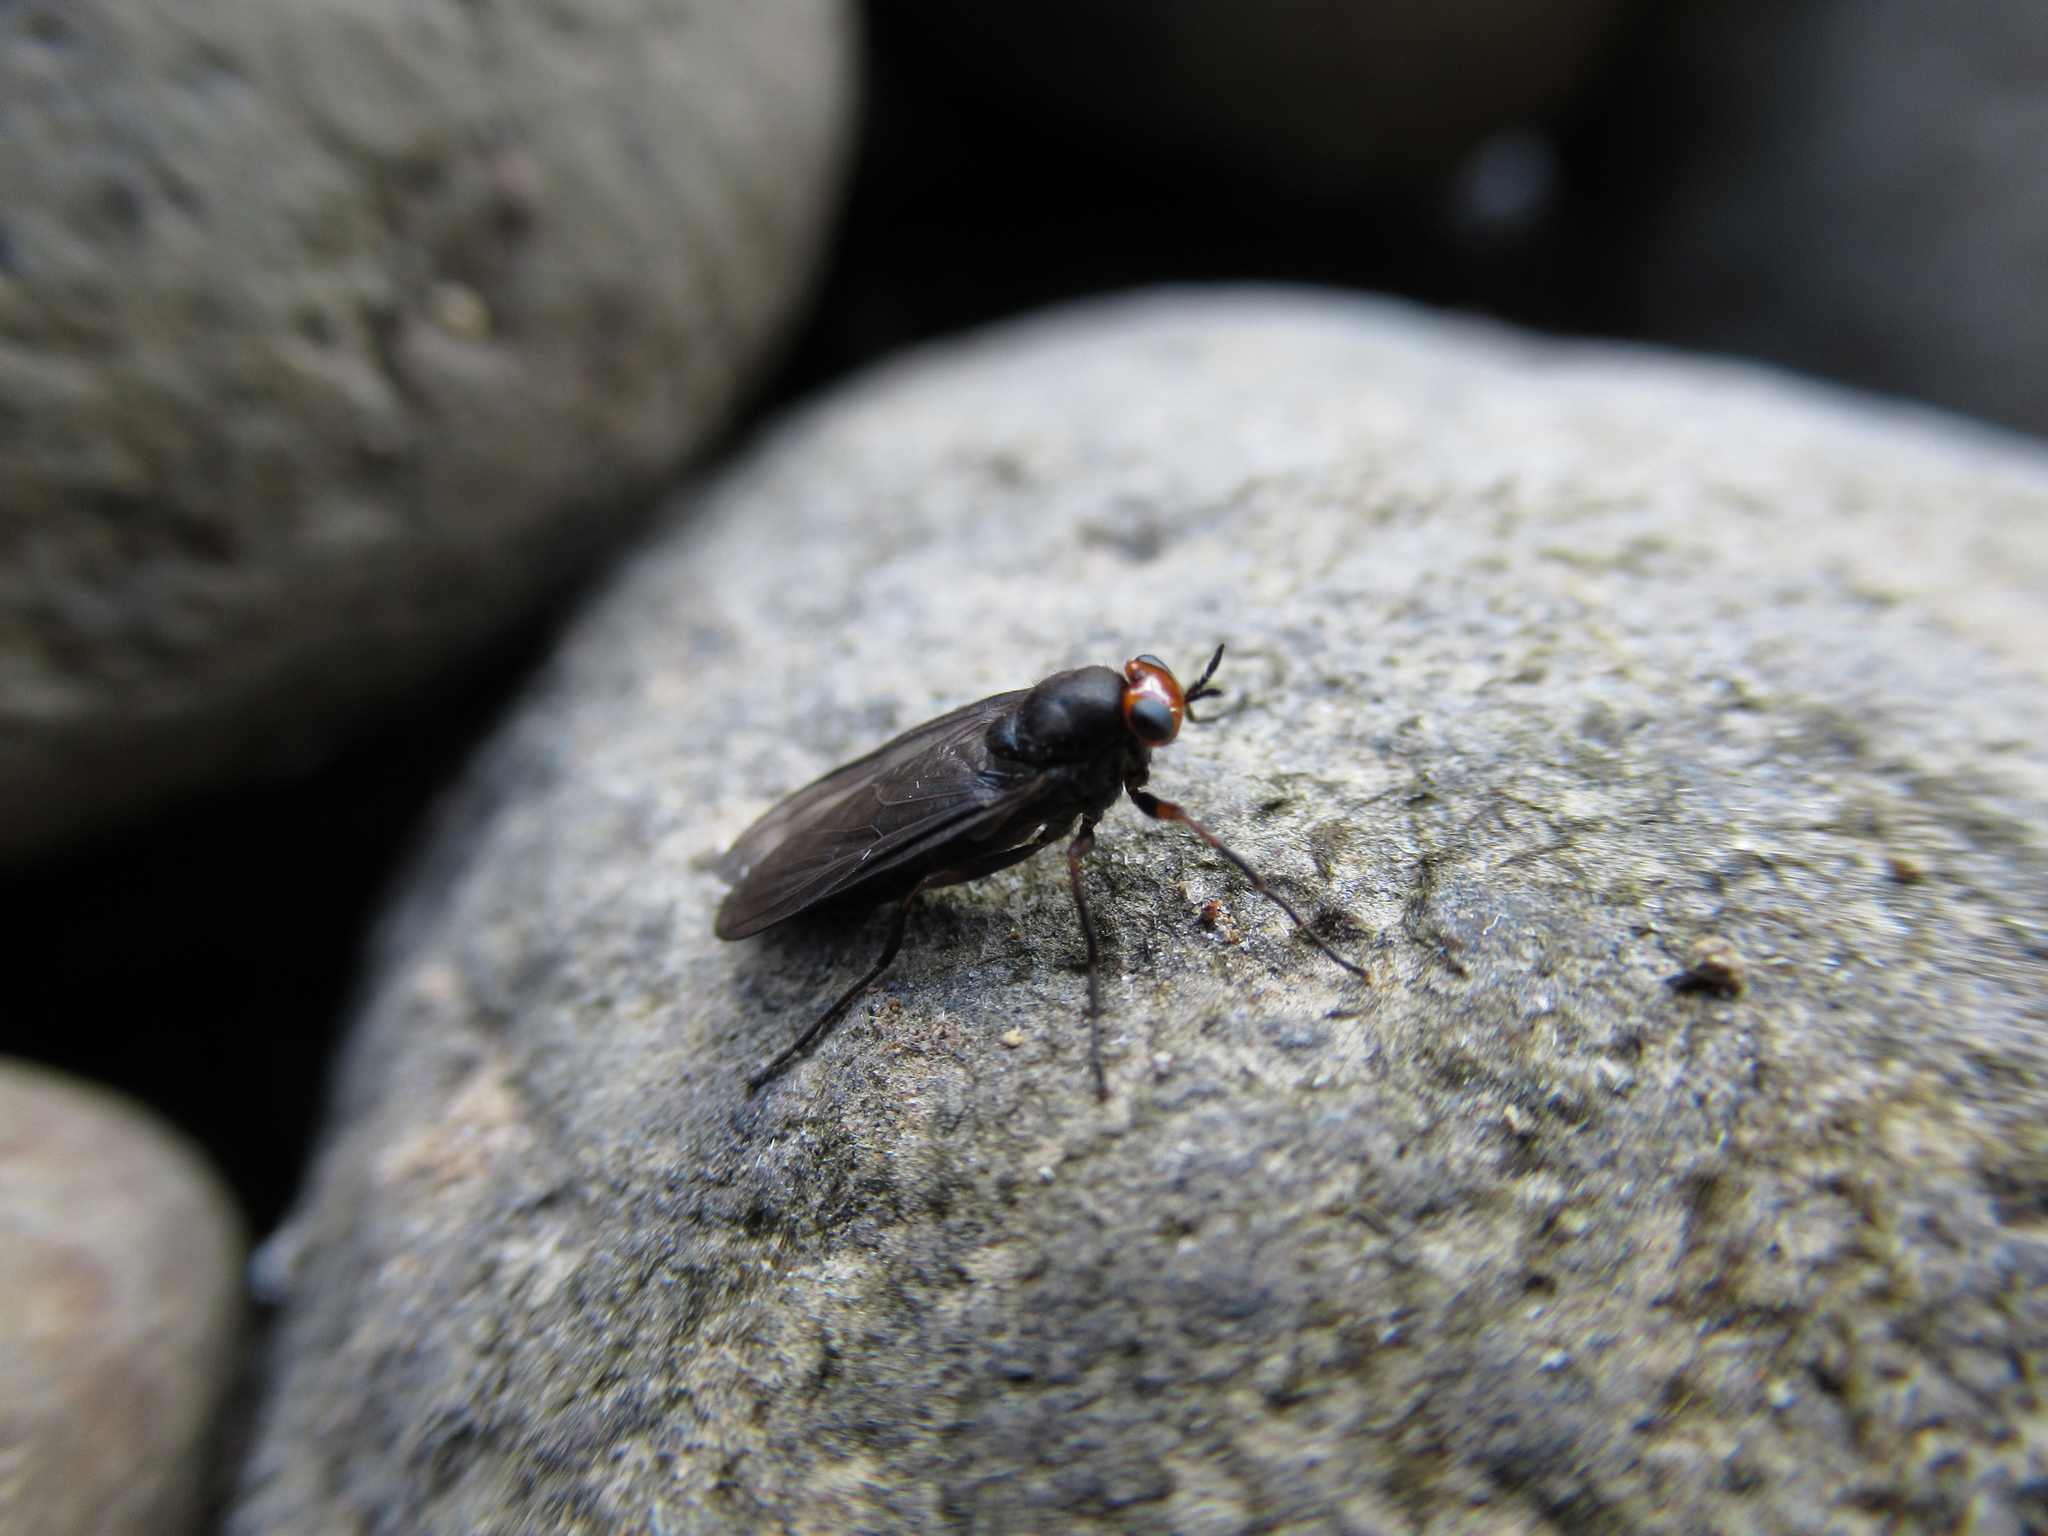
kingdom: Animalia
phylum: Arthropoda
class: Insecta
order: Diptera
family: Stratiomyidae
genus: Inopus
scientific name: Inopus rubriceps
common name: Soldier fly
